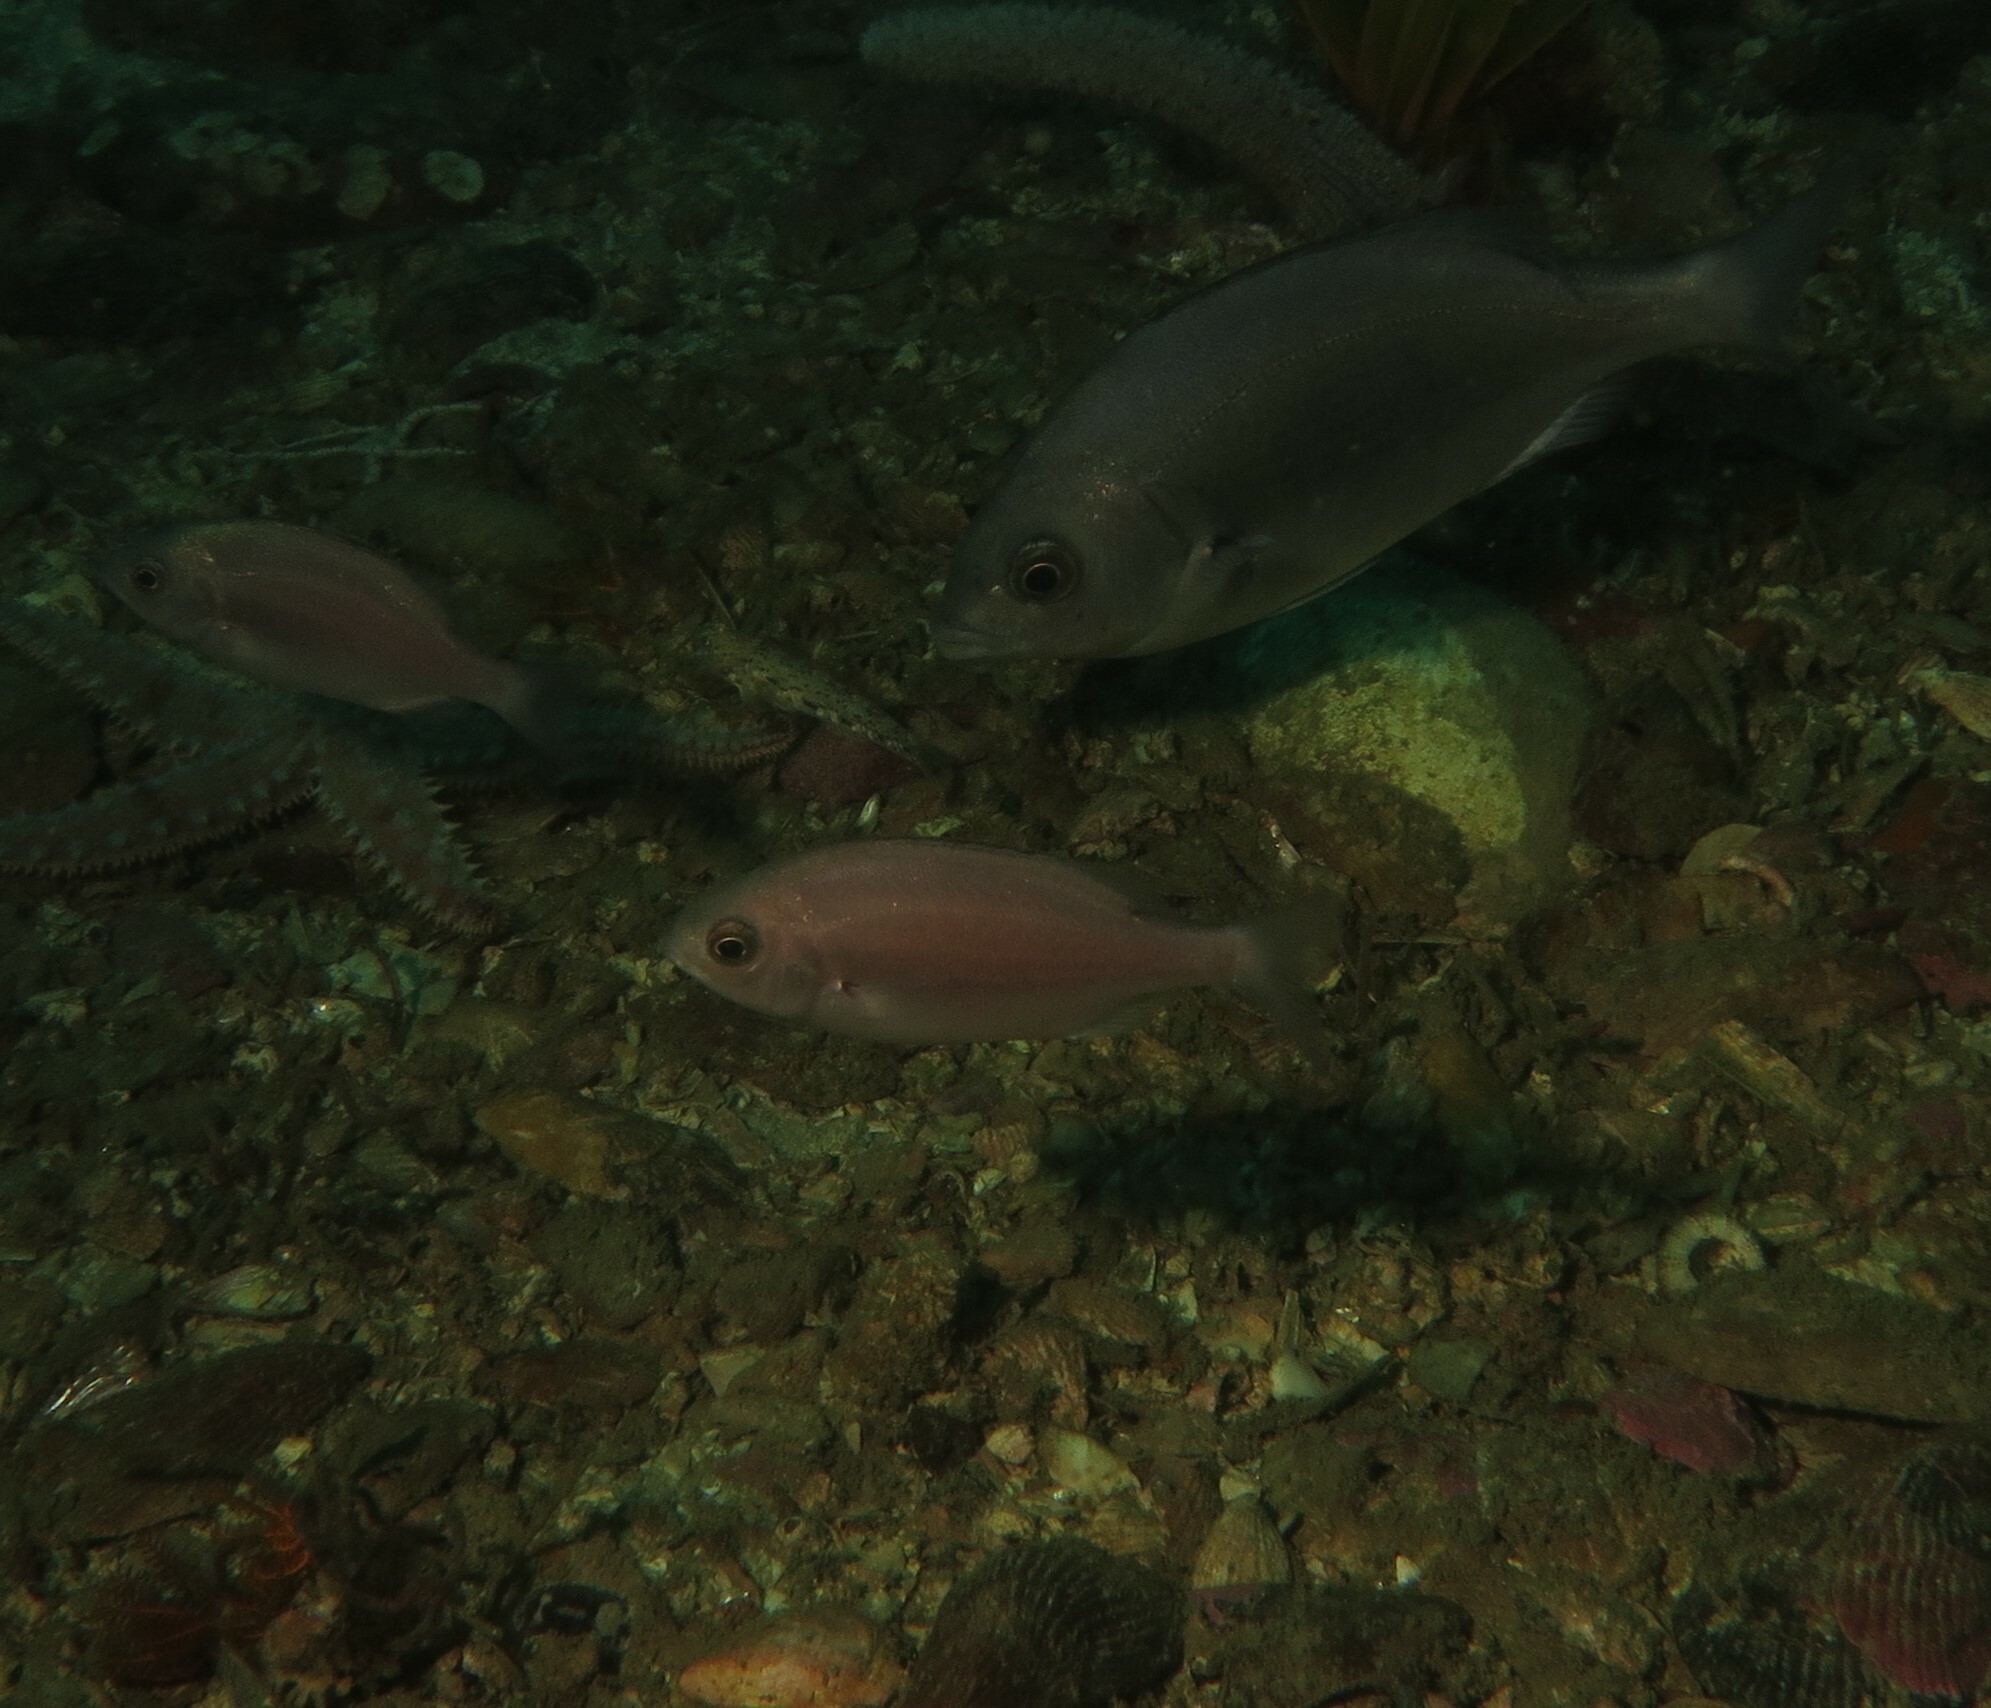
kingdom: Animalia
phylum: Chordata
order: Perciformes
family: Sparidae
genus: Pachymetopon
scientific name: Pachymetopon blochii
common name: Hottentot
